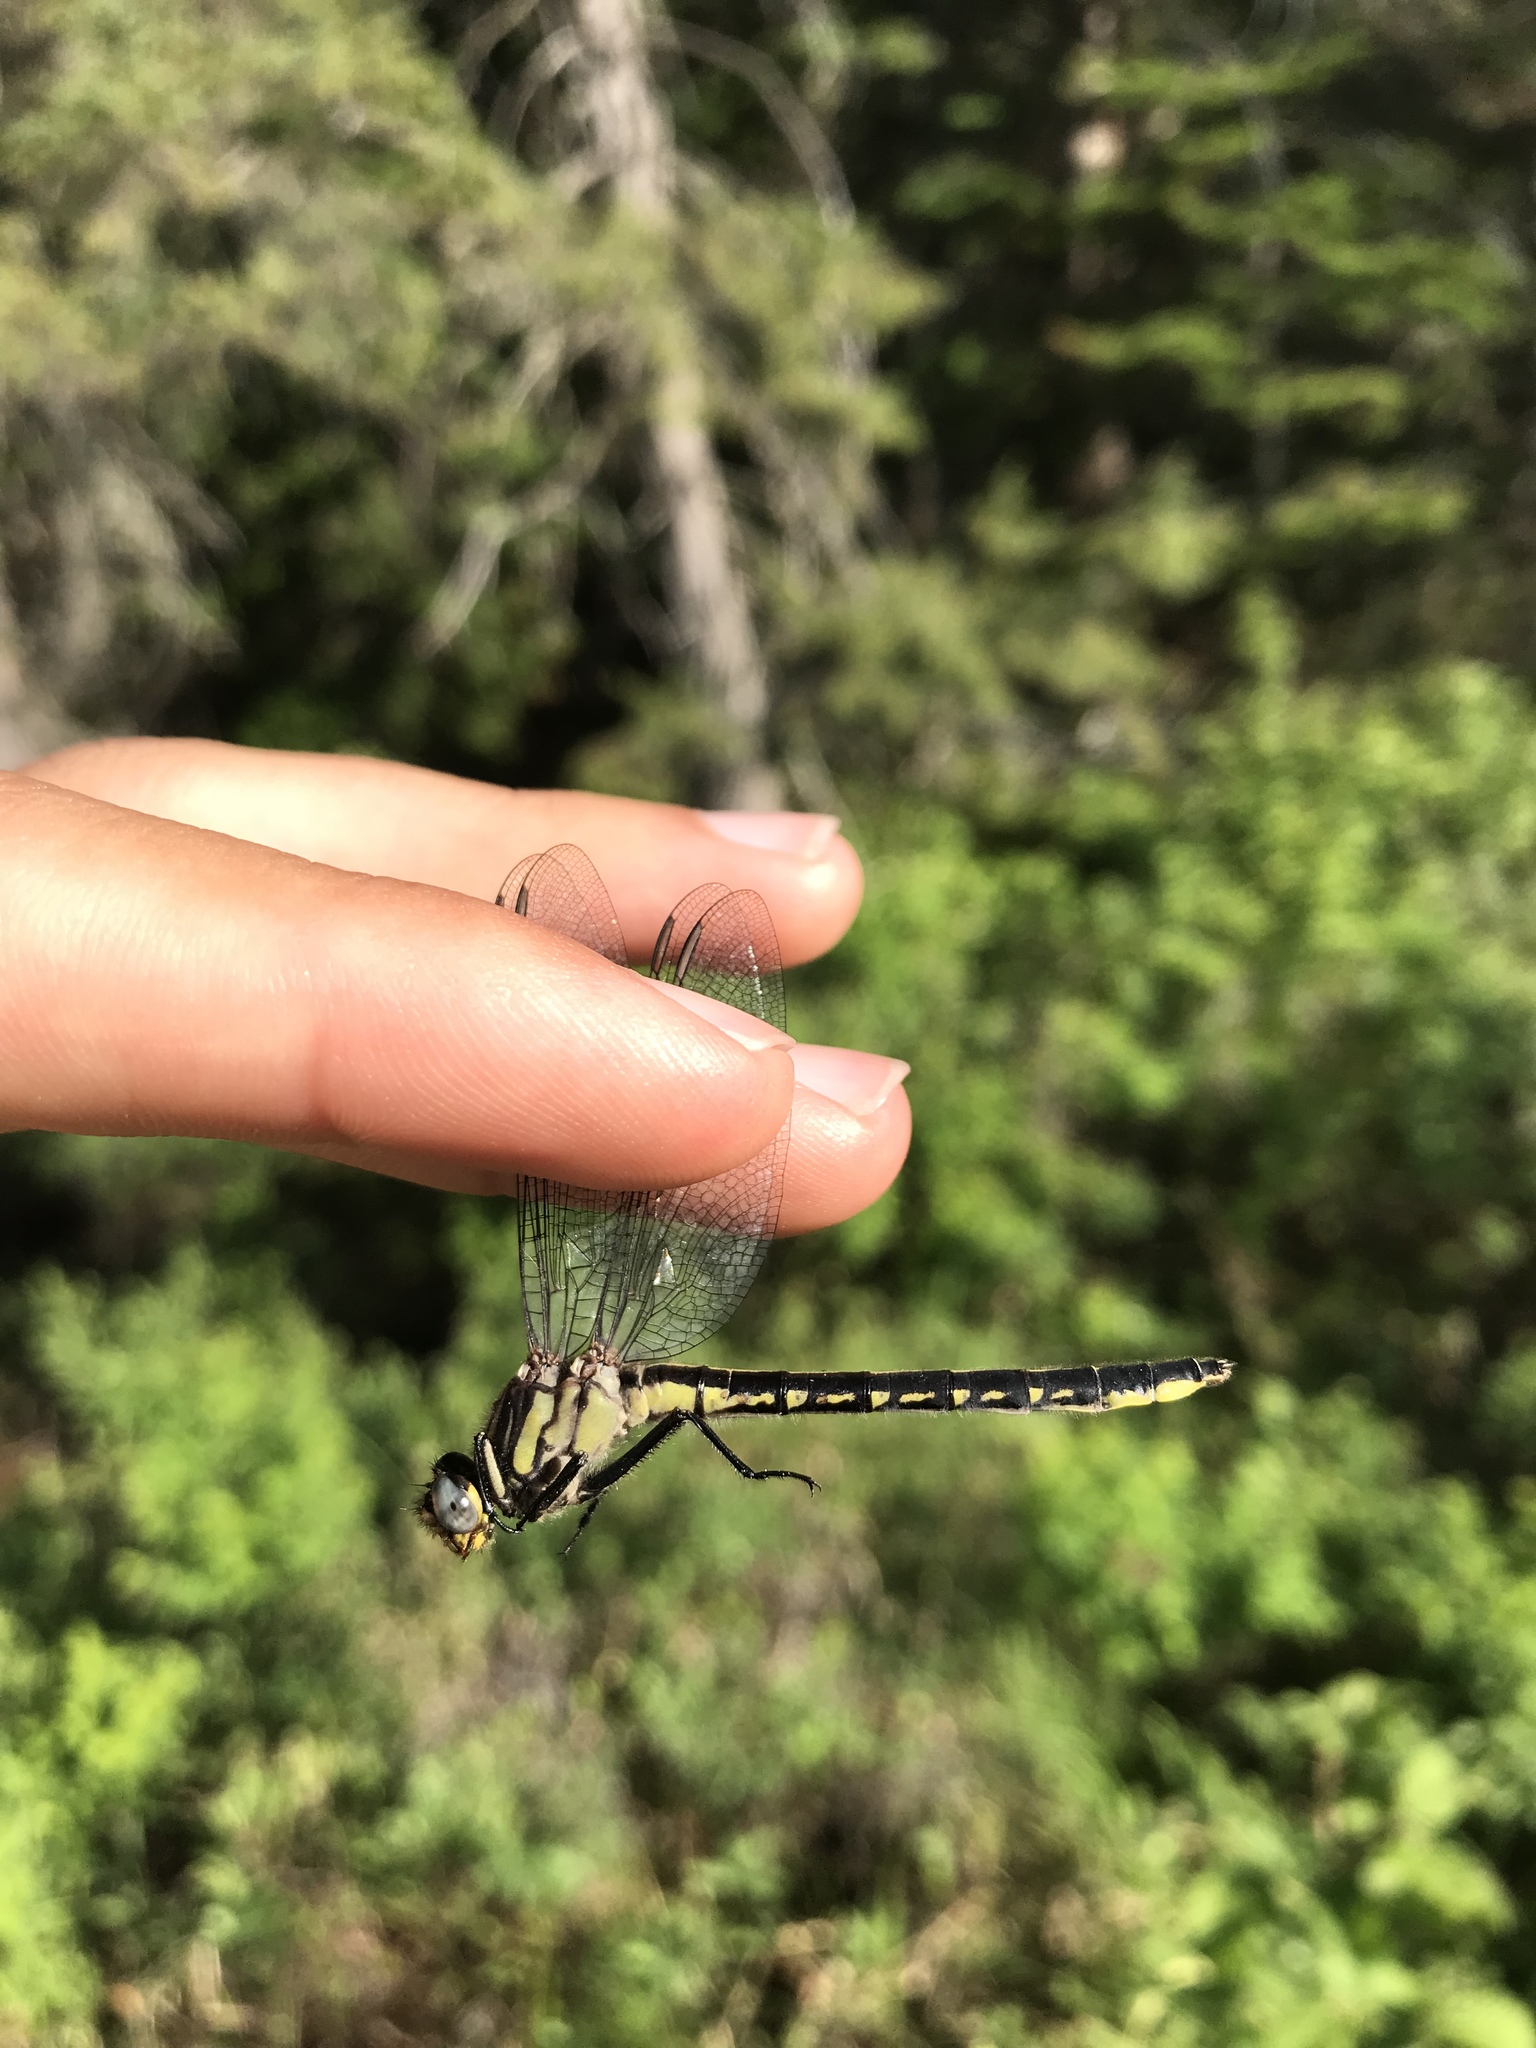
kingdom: Animalia
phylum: Arthropoda
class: Insecta
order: Odonata
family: Gomphidae
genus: Phanogomphus
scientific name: Phanogomphus borealis
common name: Beaverpond clubtail
